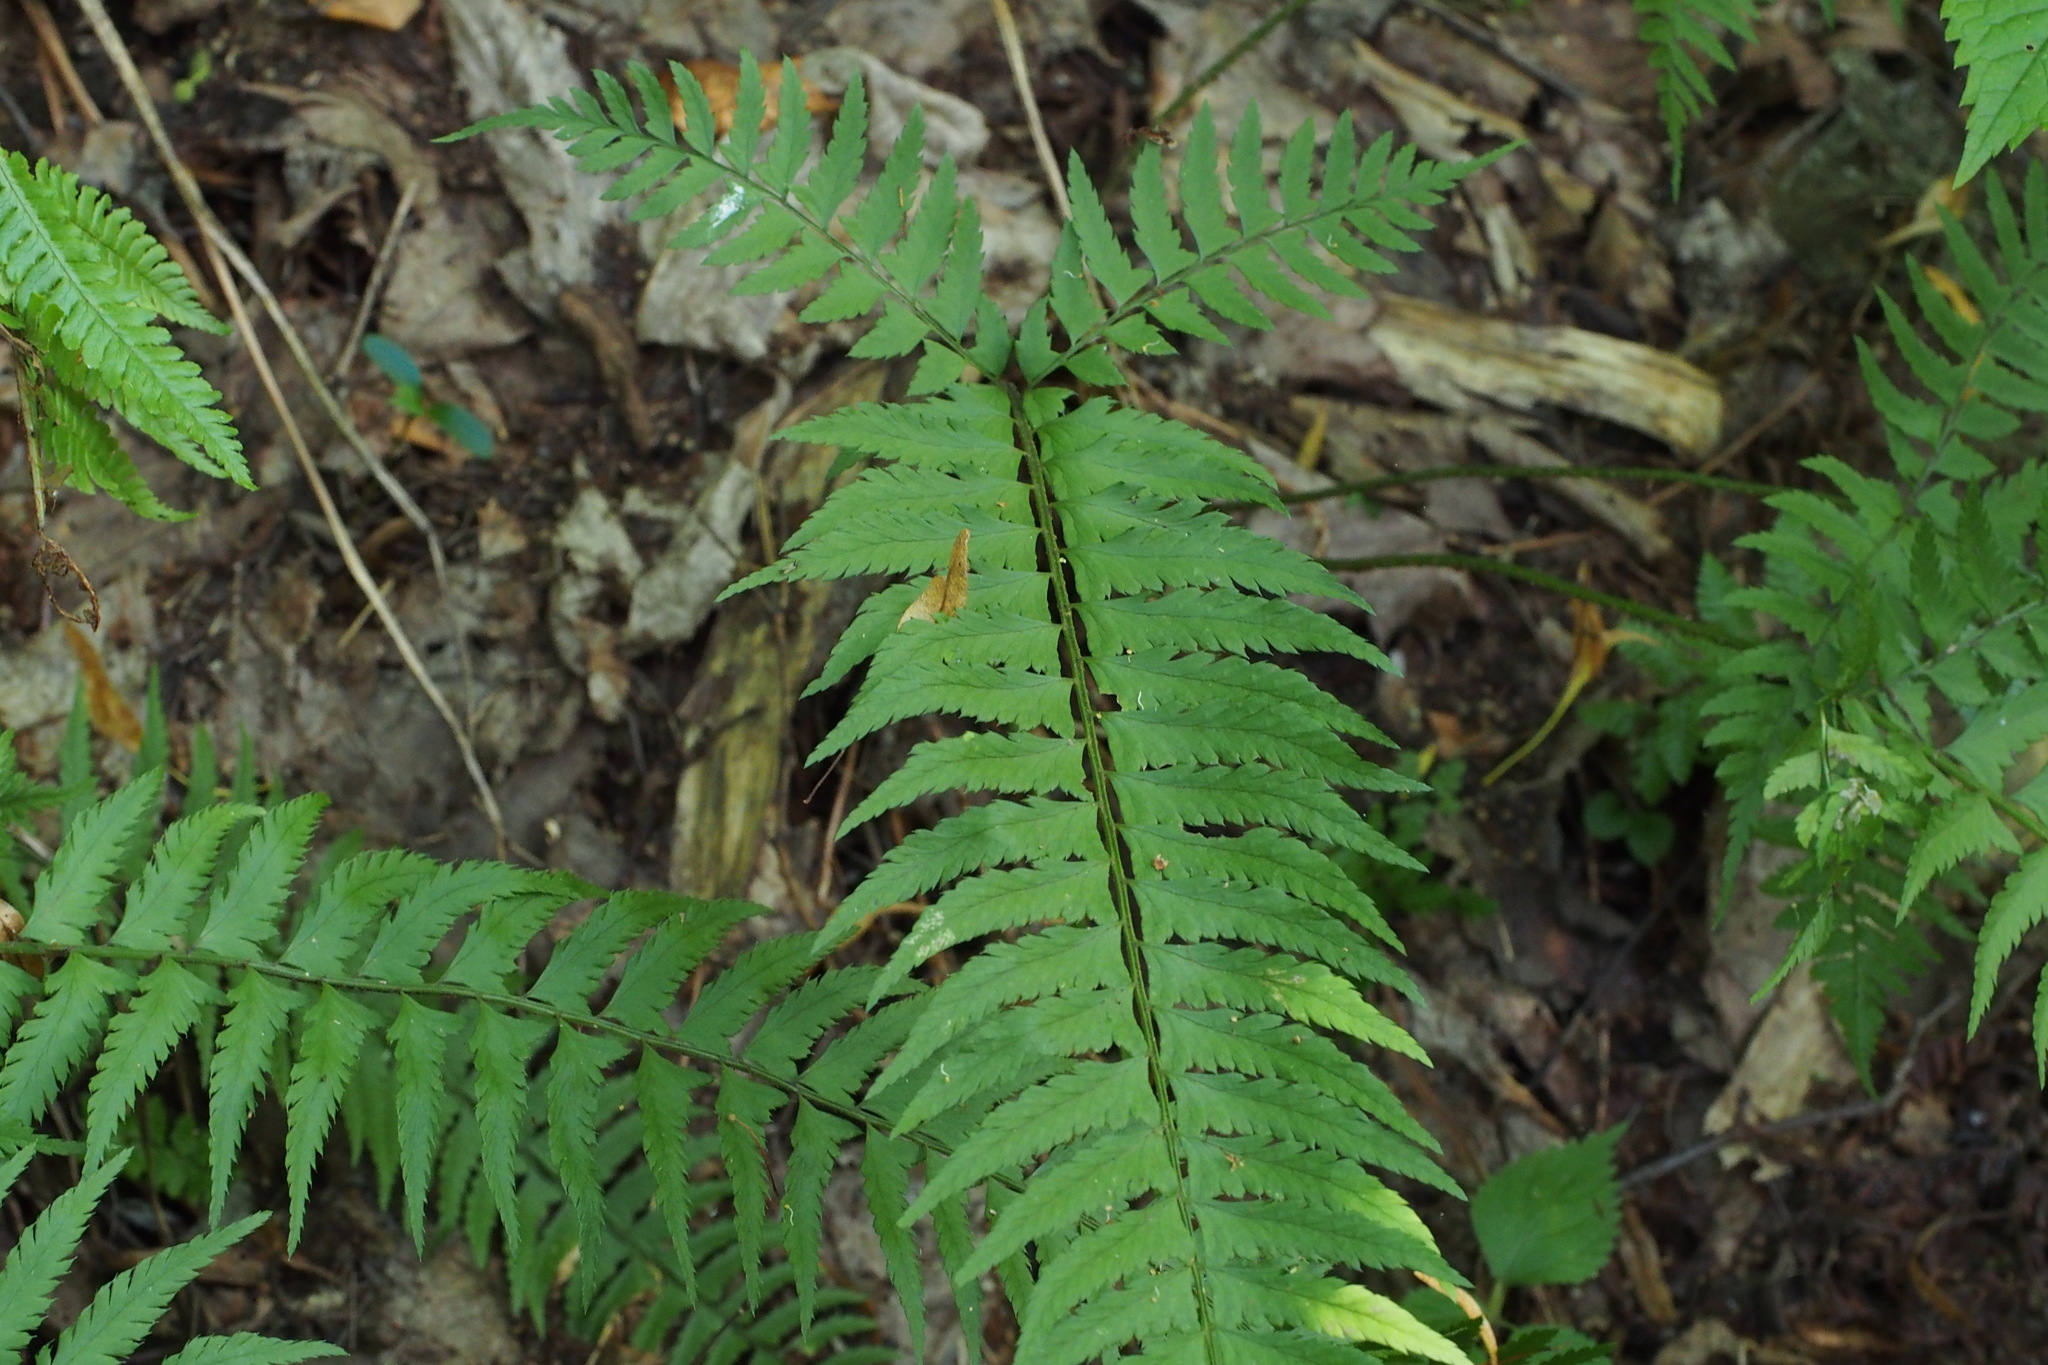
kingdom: Plantae
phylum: Tracheophyta
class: Polypodiopsida
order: Polypodiales
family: Dryopteridaceae
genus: Polystichum
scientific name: Polystichum tripteron
